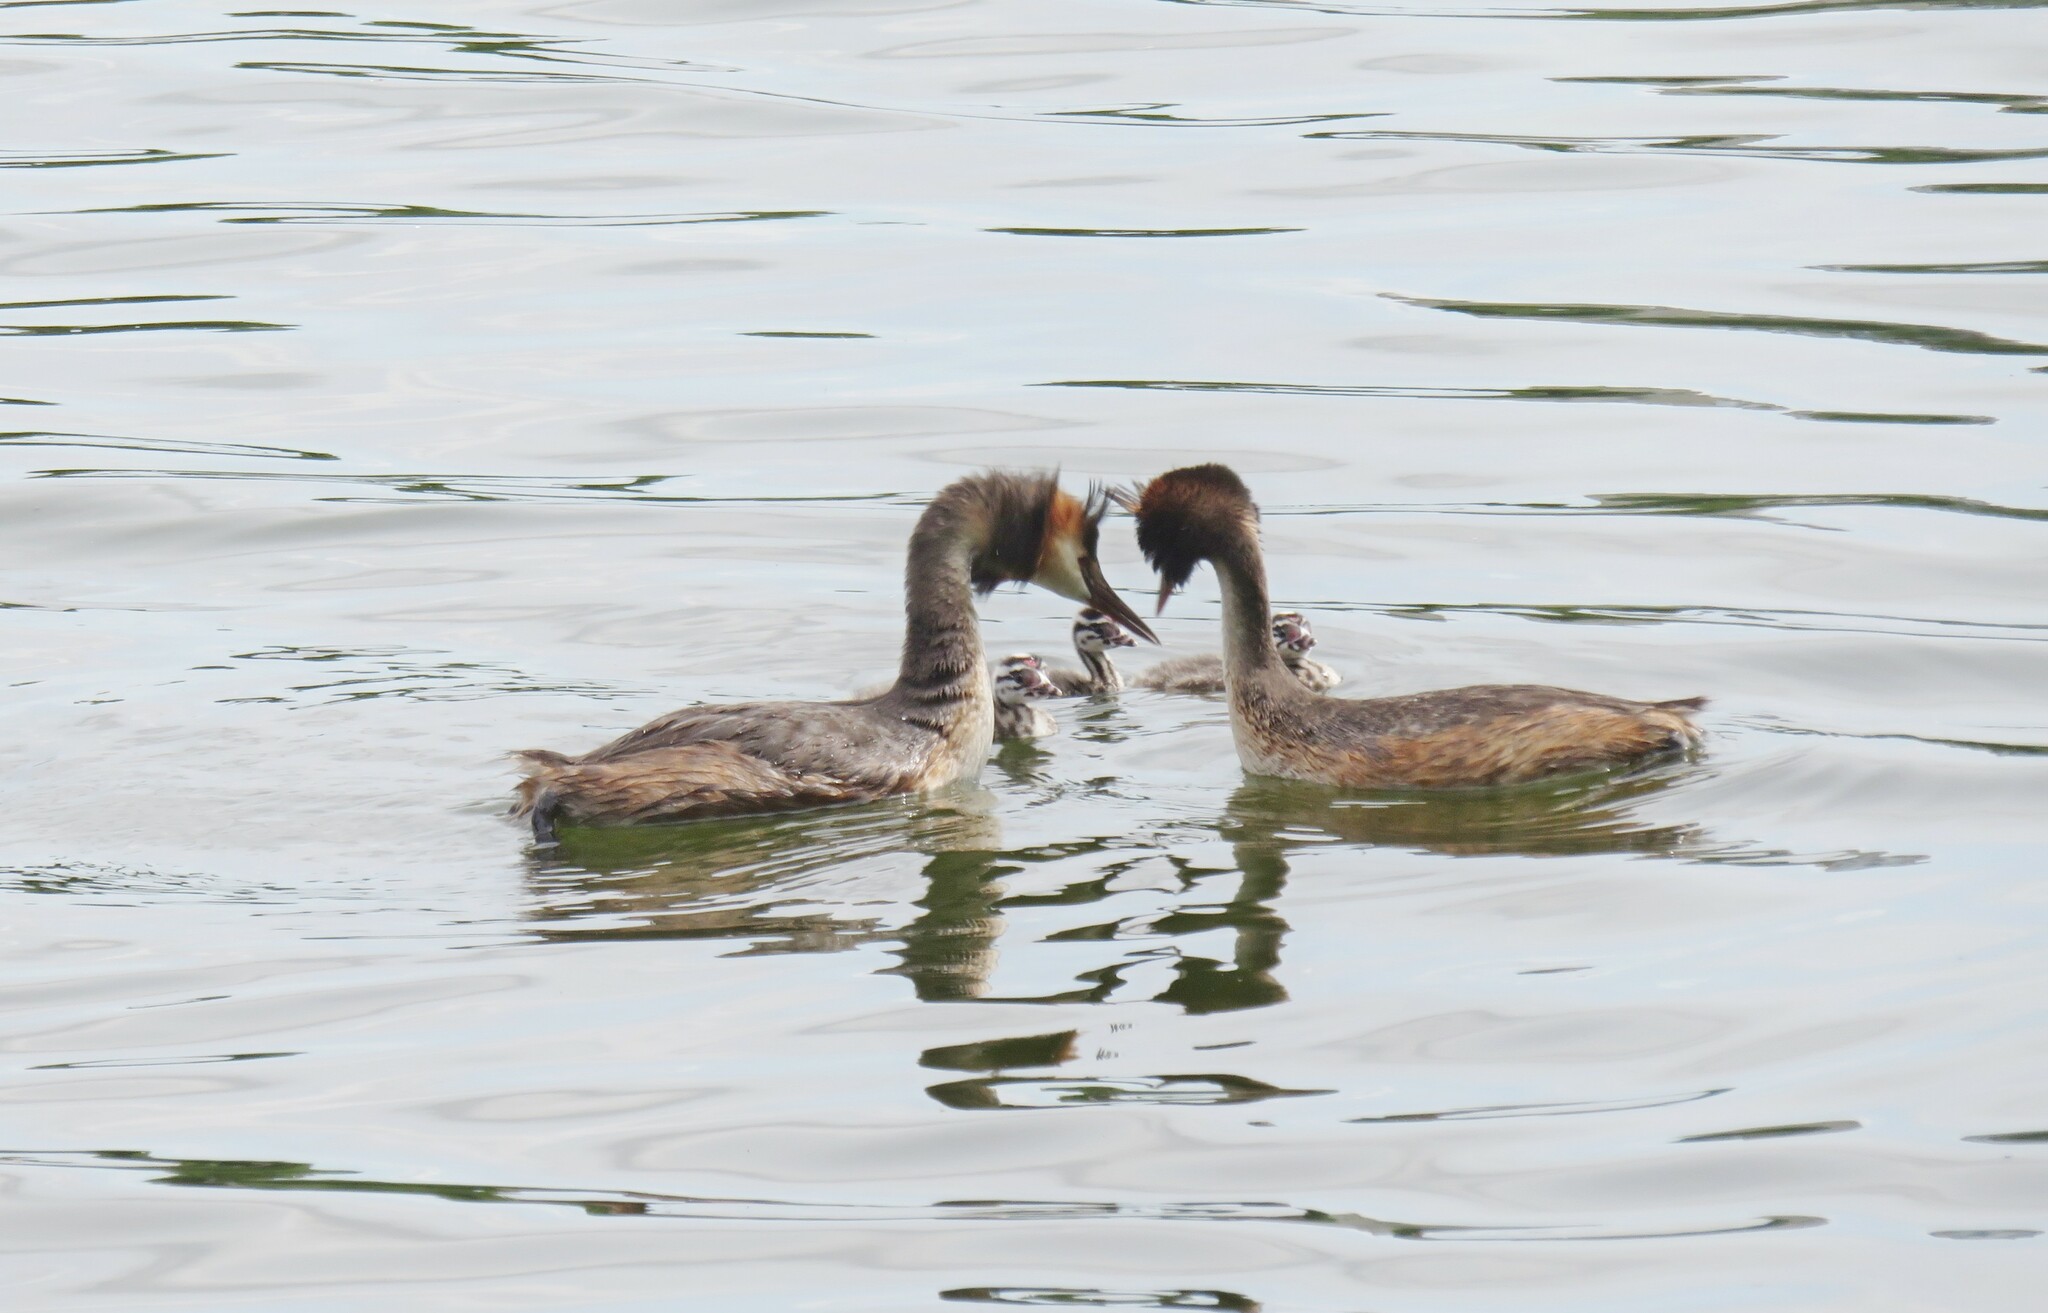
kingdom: Animalia
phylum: Chordata
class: Aves
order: Podicipediformes
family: Podicipedidae
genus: Podiceps
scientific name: Podiceps cristatus
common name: Great crested grebe
